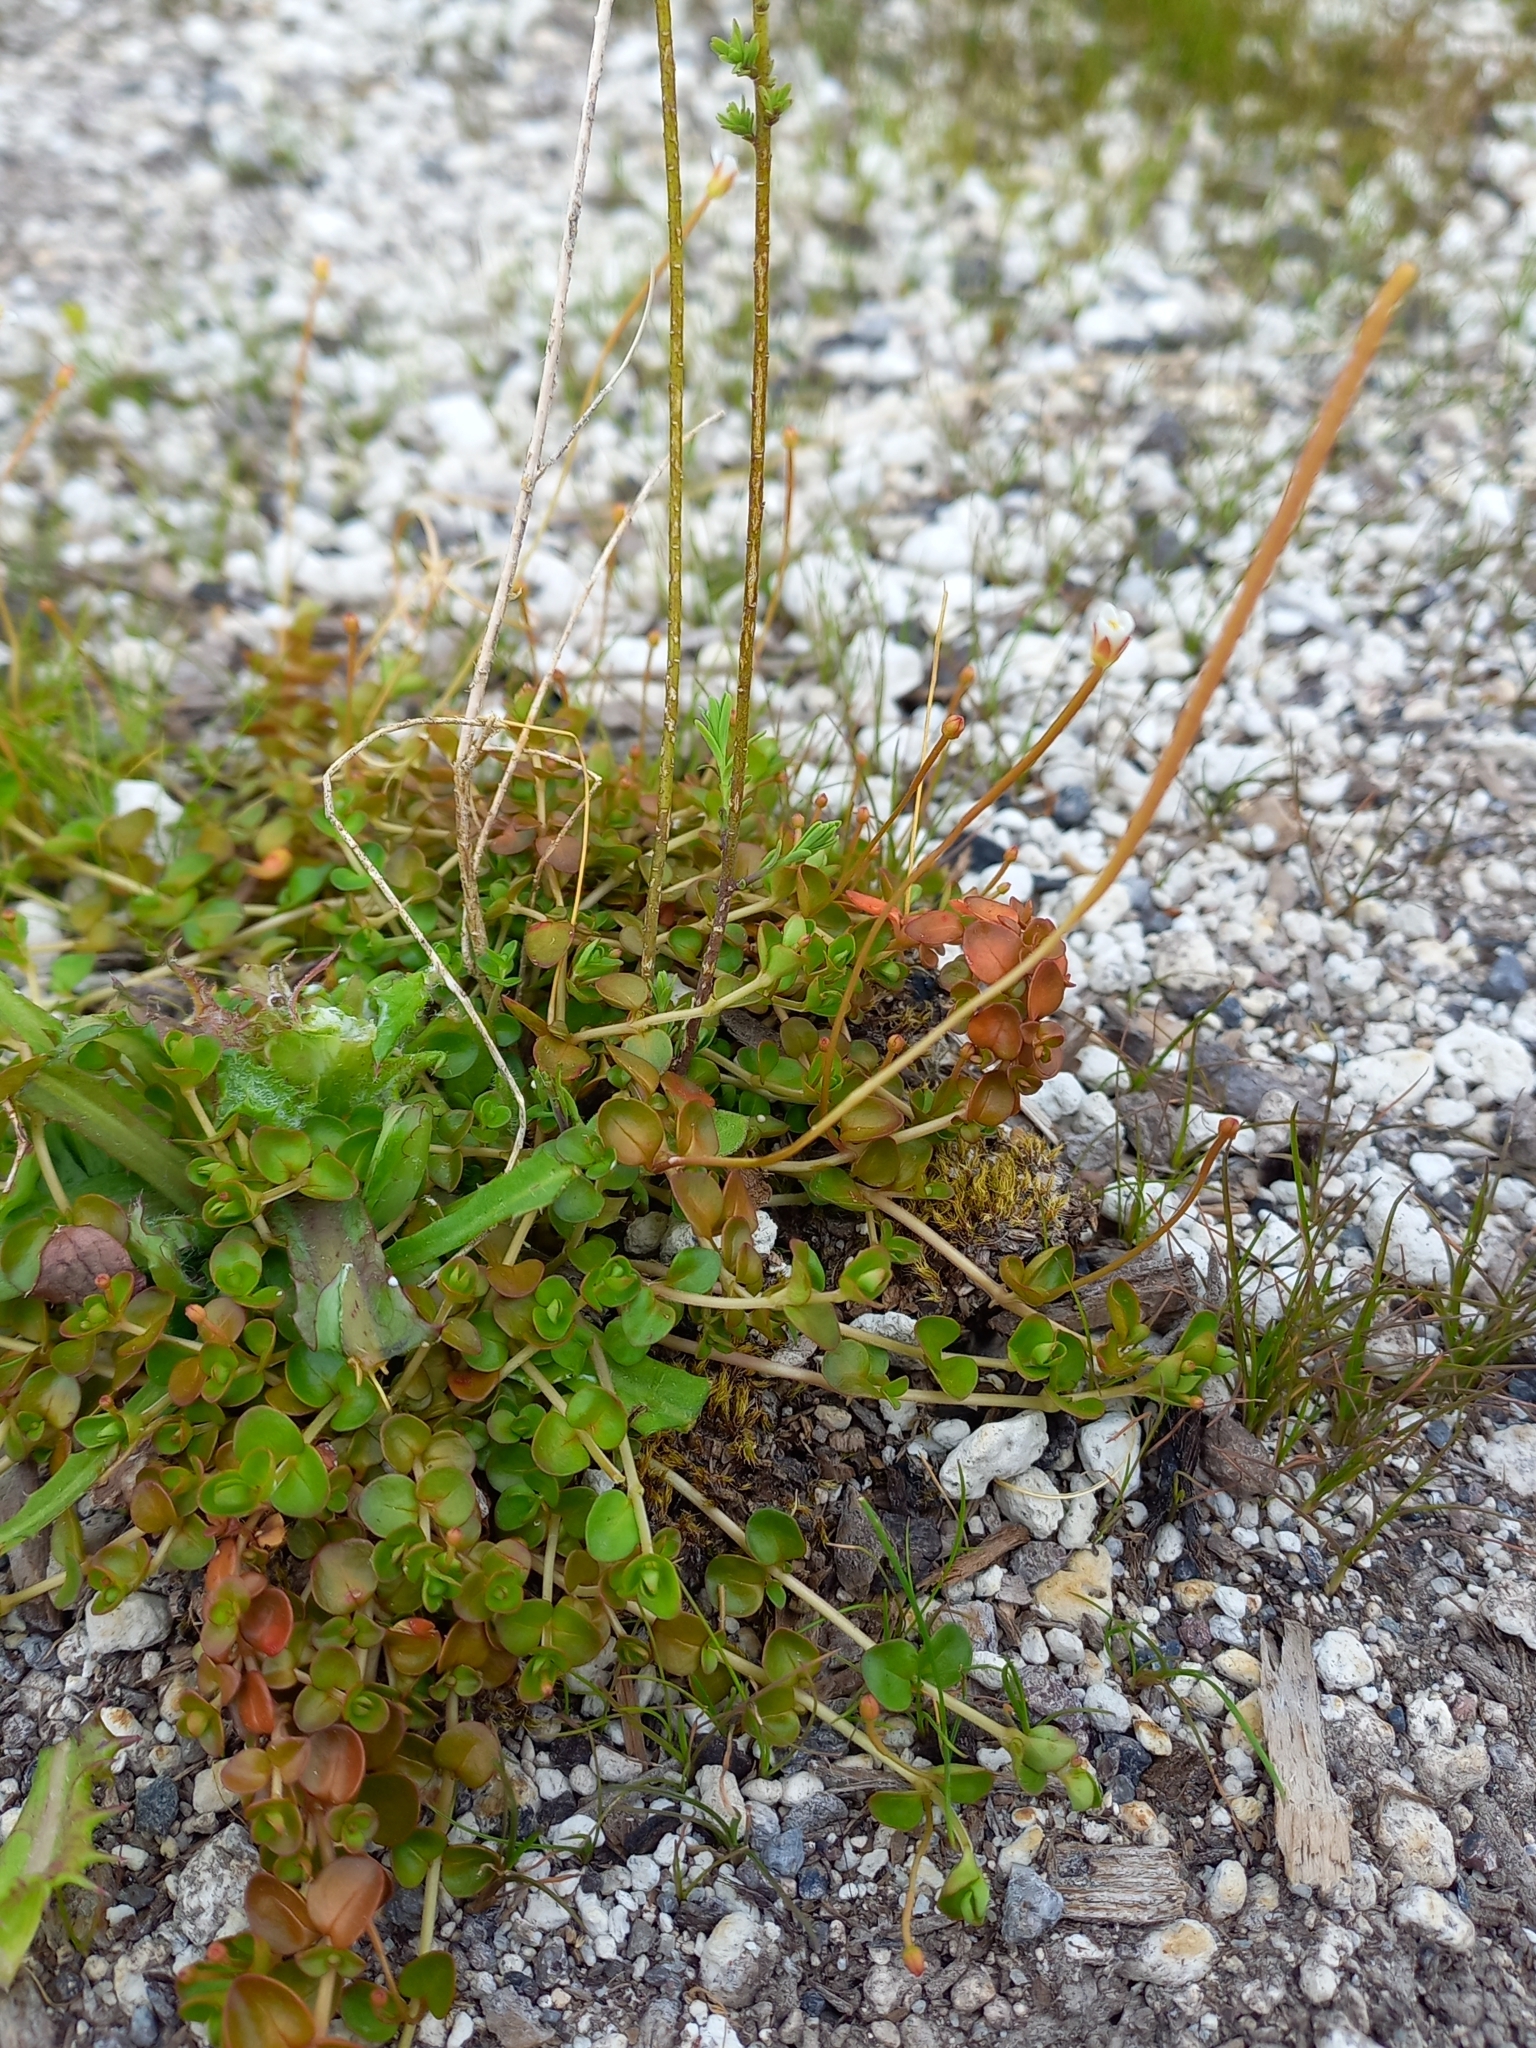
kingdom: Plantae
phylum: Tracheophyta
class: Magnoliopsida
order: Myrtales
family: Onagraceae
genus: Epilobium
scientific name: Epilobium brunnescens
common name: New zealand willowherb
